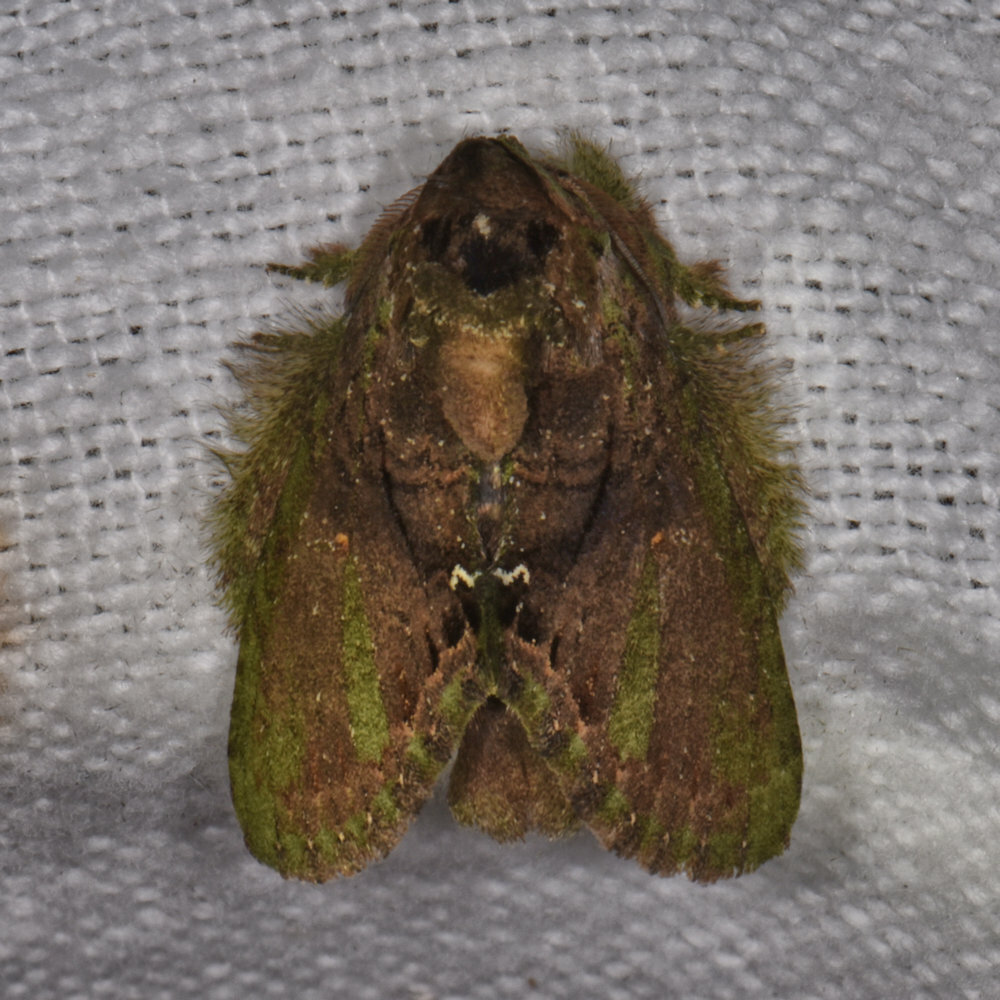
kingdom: Animalia
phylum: Arthropoda
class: Insecta
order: Lepidoptera
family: Notodontidae
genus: Disphragis
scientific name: Disphragis lama
